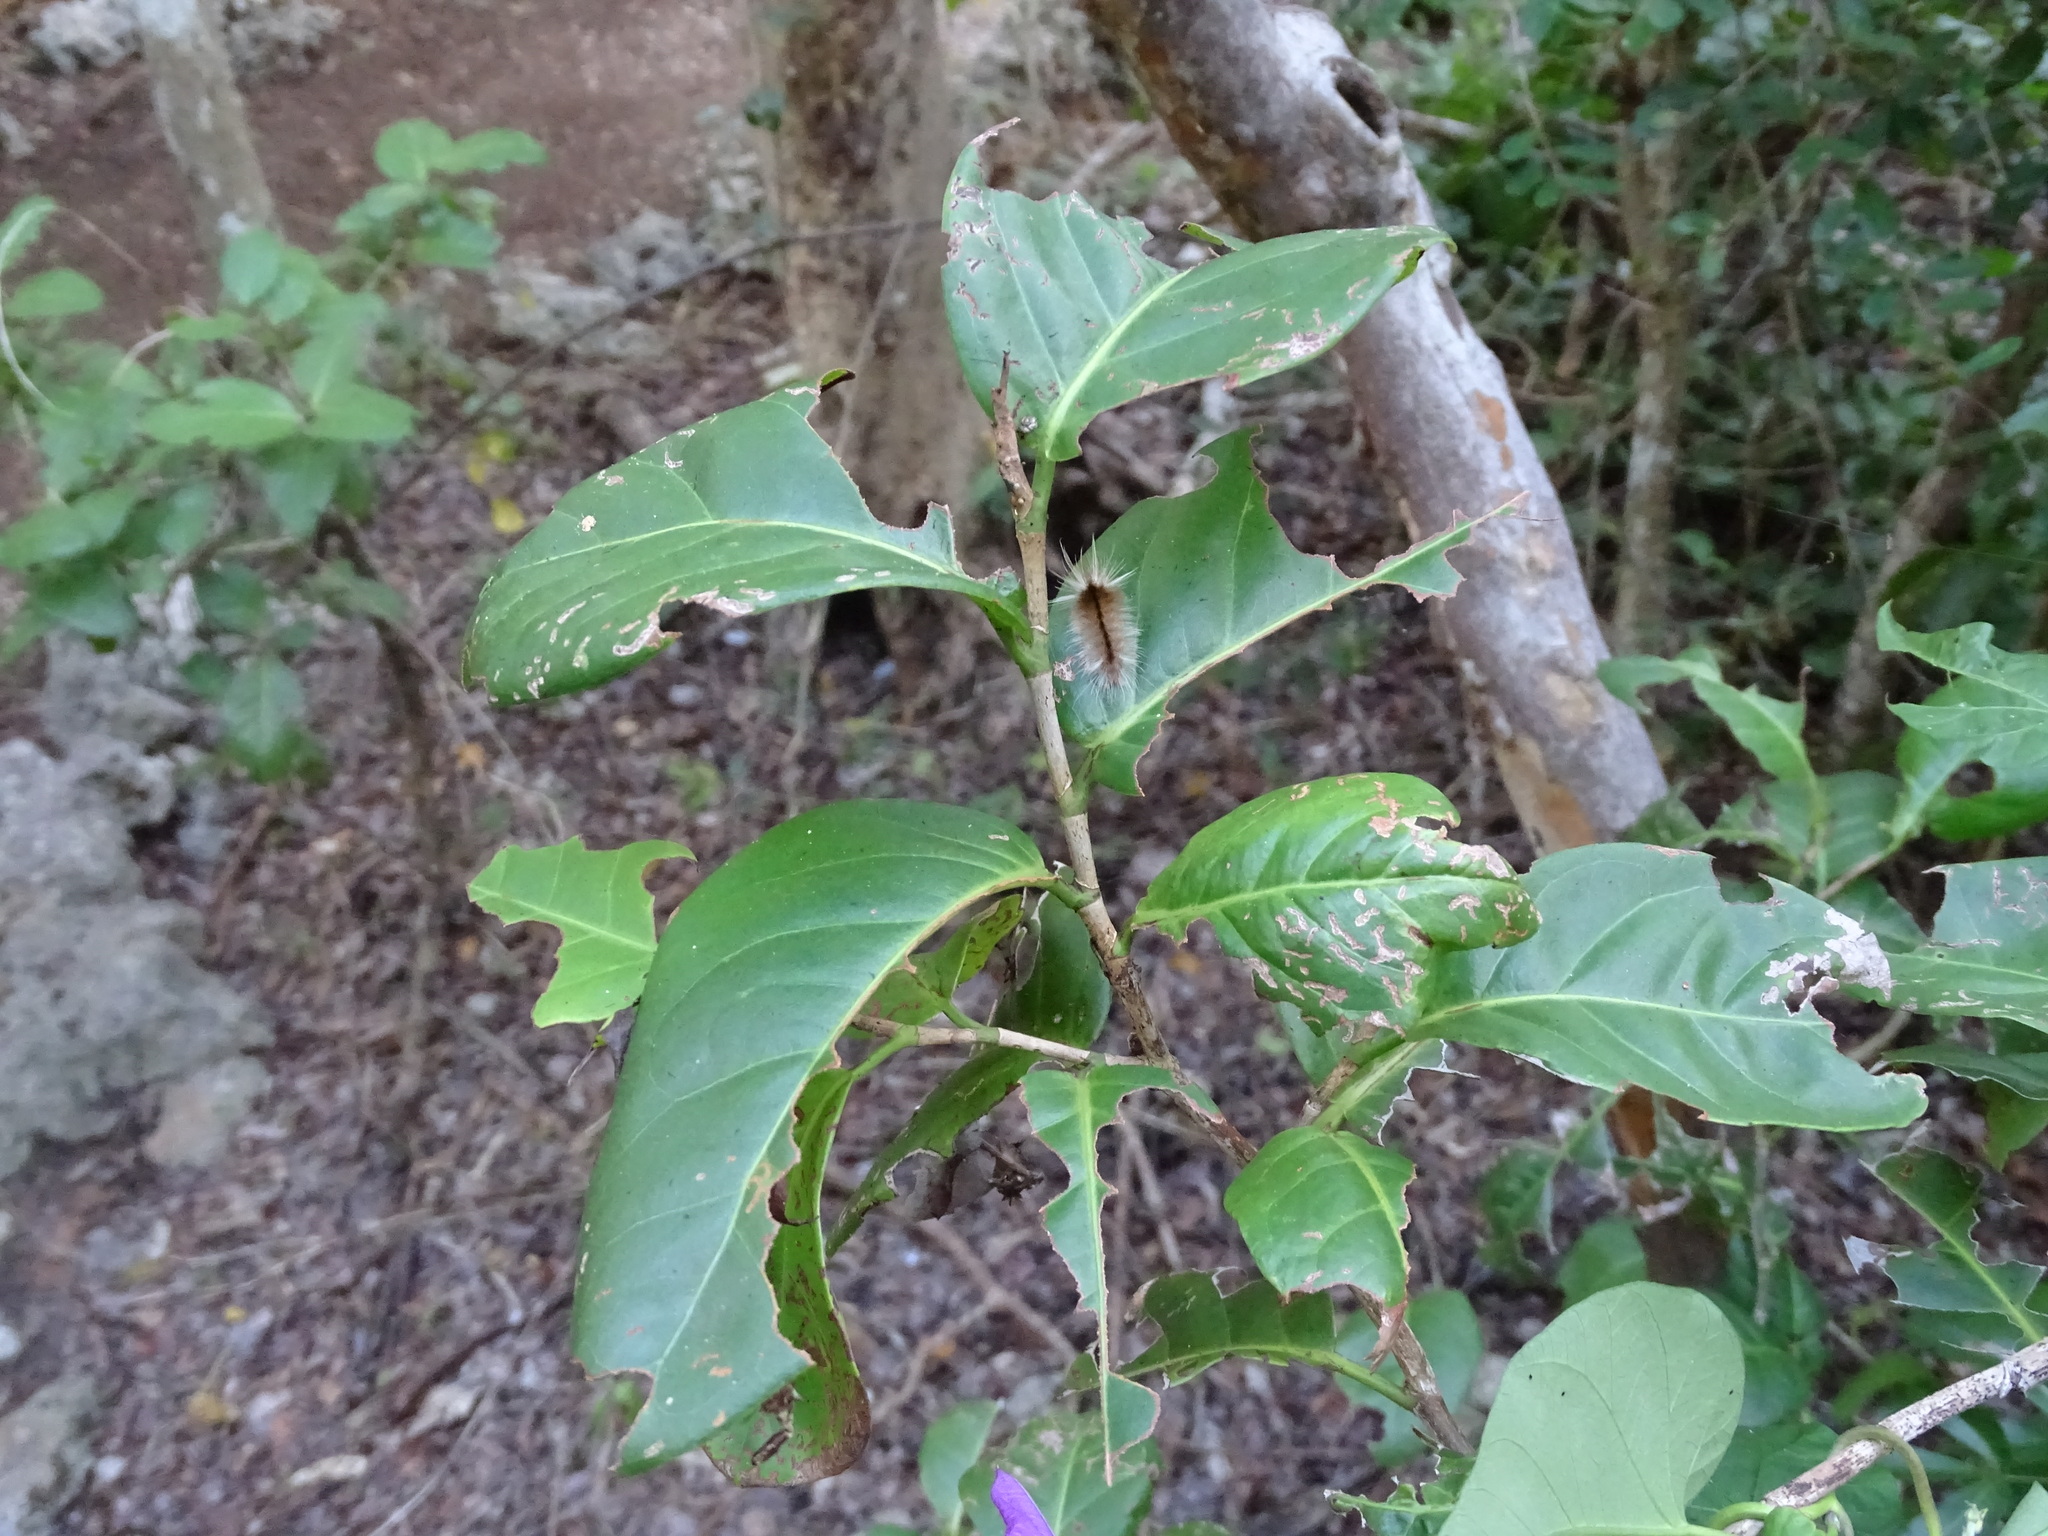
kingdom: Animalia
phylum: Arthropoda
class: Insecta
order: Lepidoptera
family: Erebidae
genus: Halysidota
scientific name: Halysidota cinctipes
